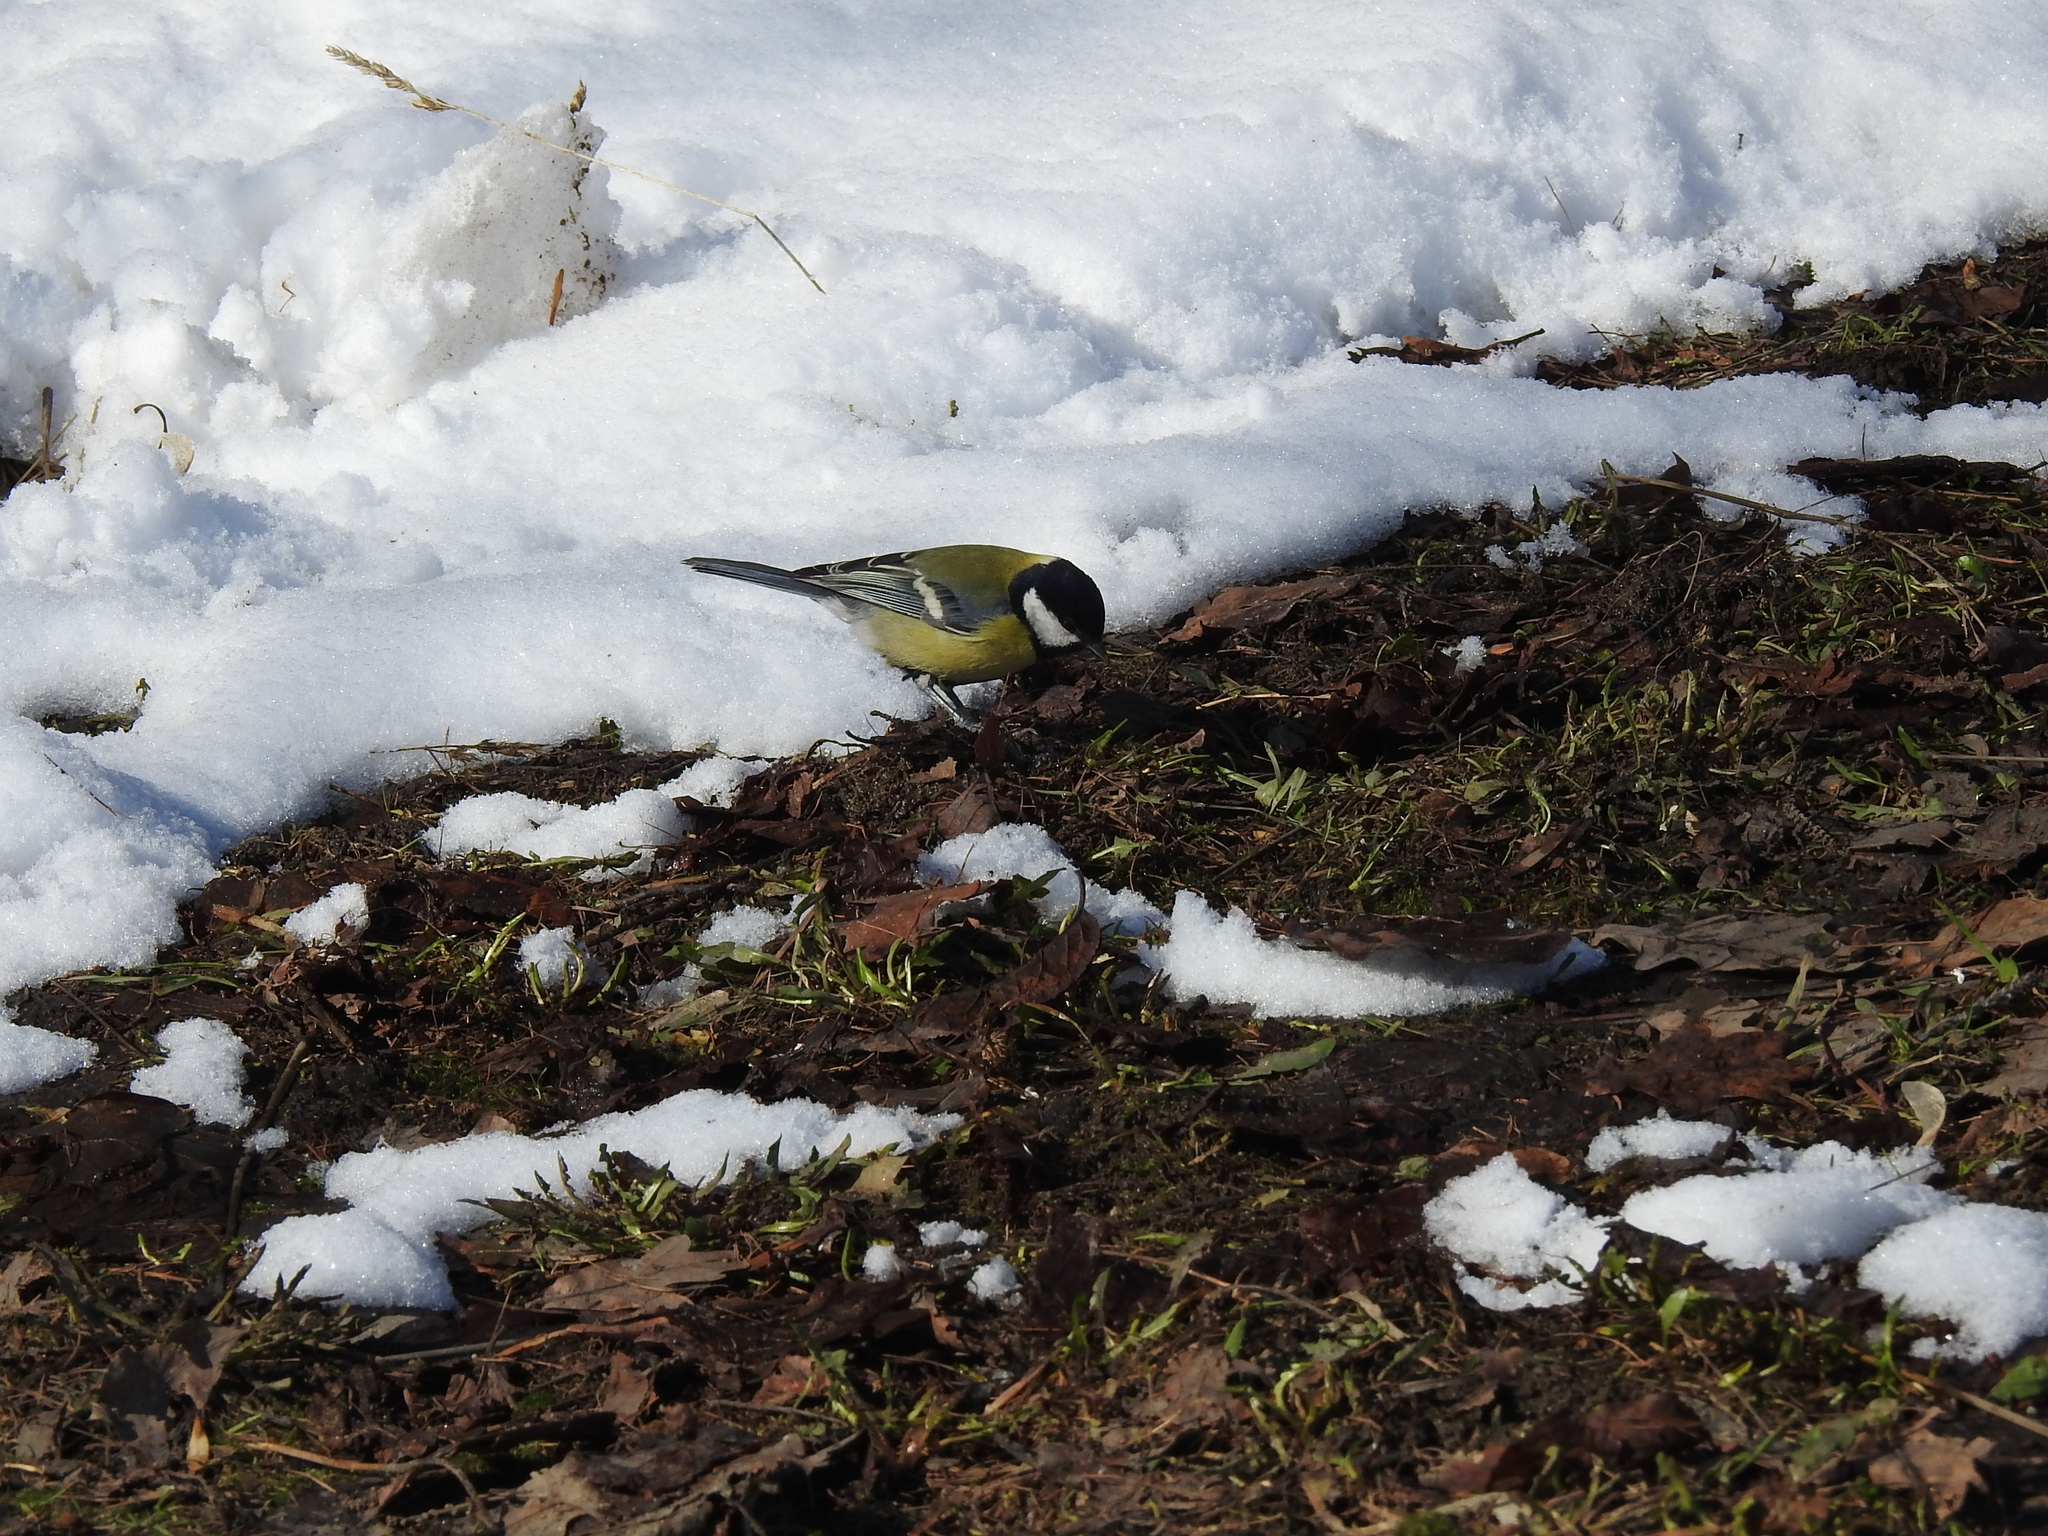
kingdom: Animalia
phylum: Chordata
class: Aves
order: Passeriformes
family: Paridae
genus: Parus
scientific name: Parus major
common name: Great tit
